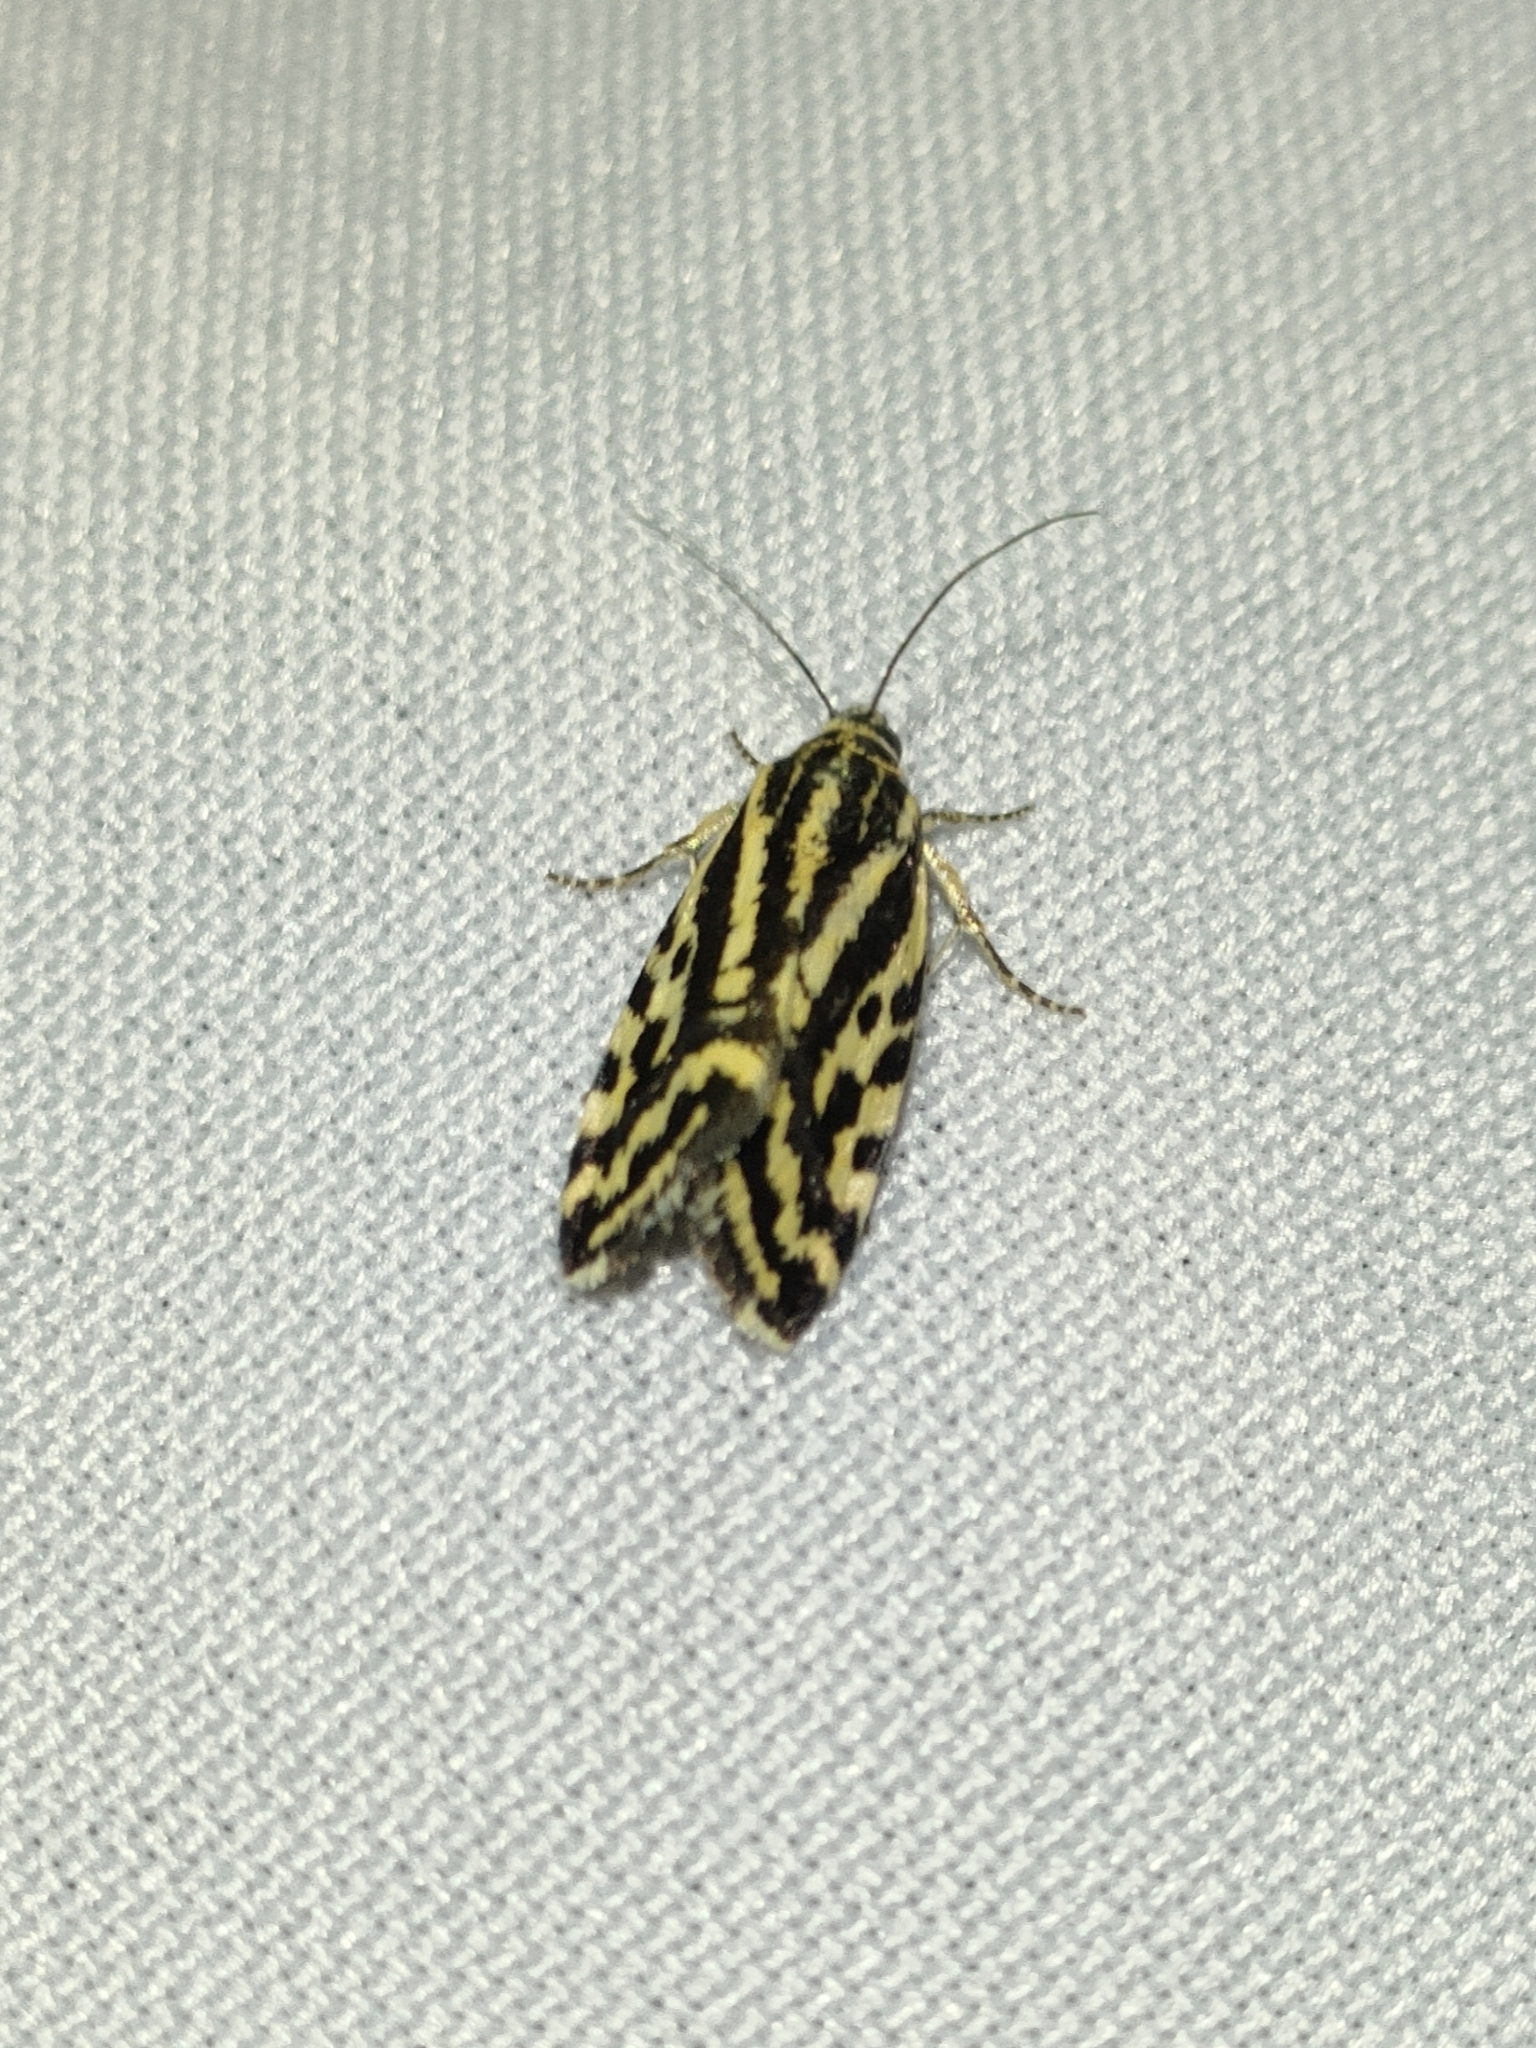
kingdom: Animalia
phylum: Arthropoda
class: Insecta
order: Lepidoptera
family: Noctuidae
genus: Acontia
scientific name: Acontia trabealis
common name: Spotted sulphur
